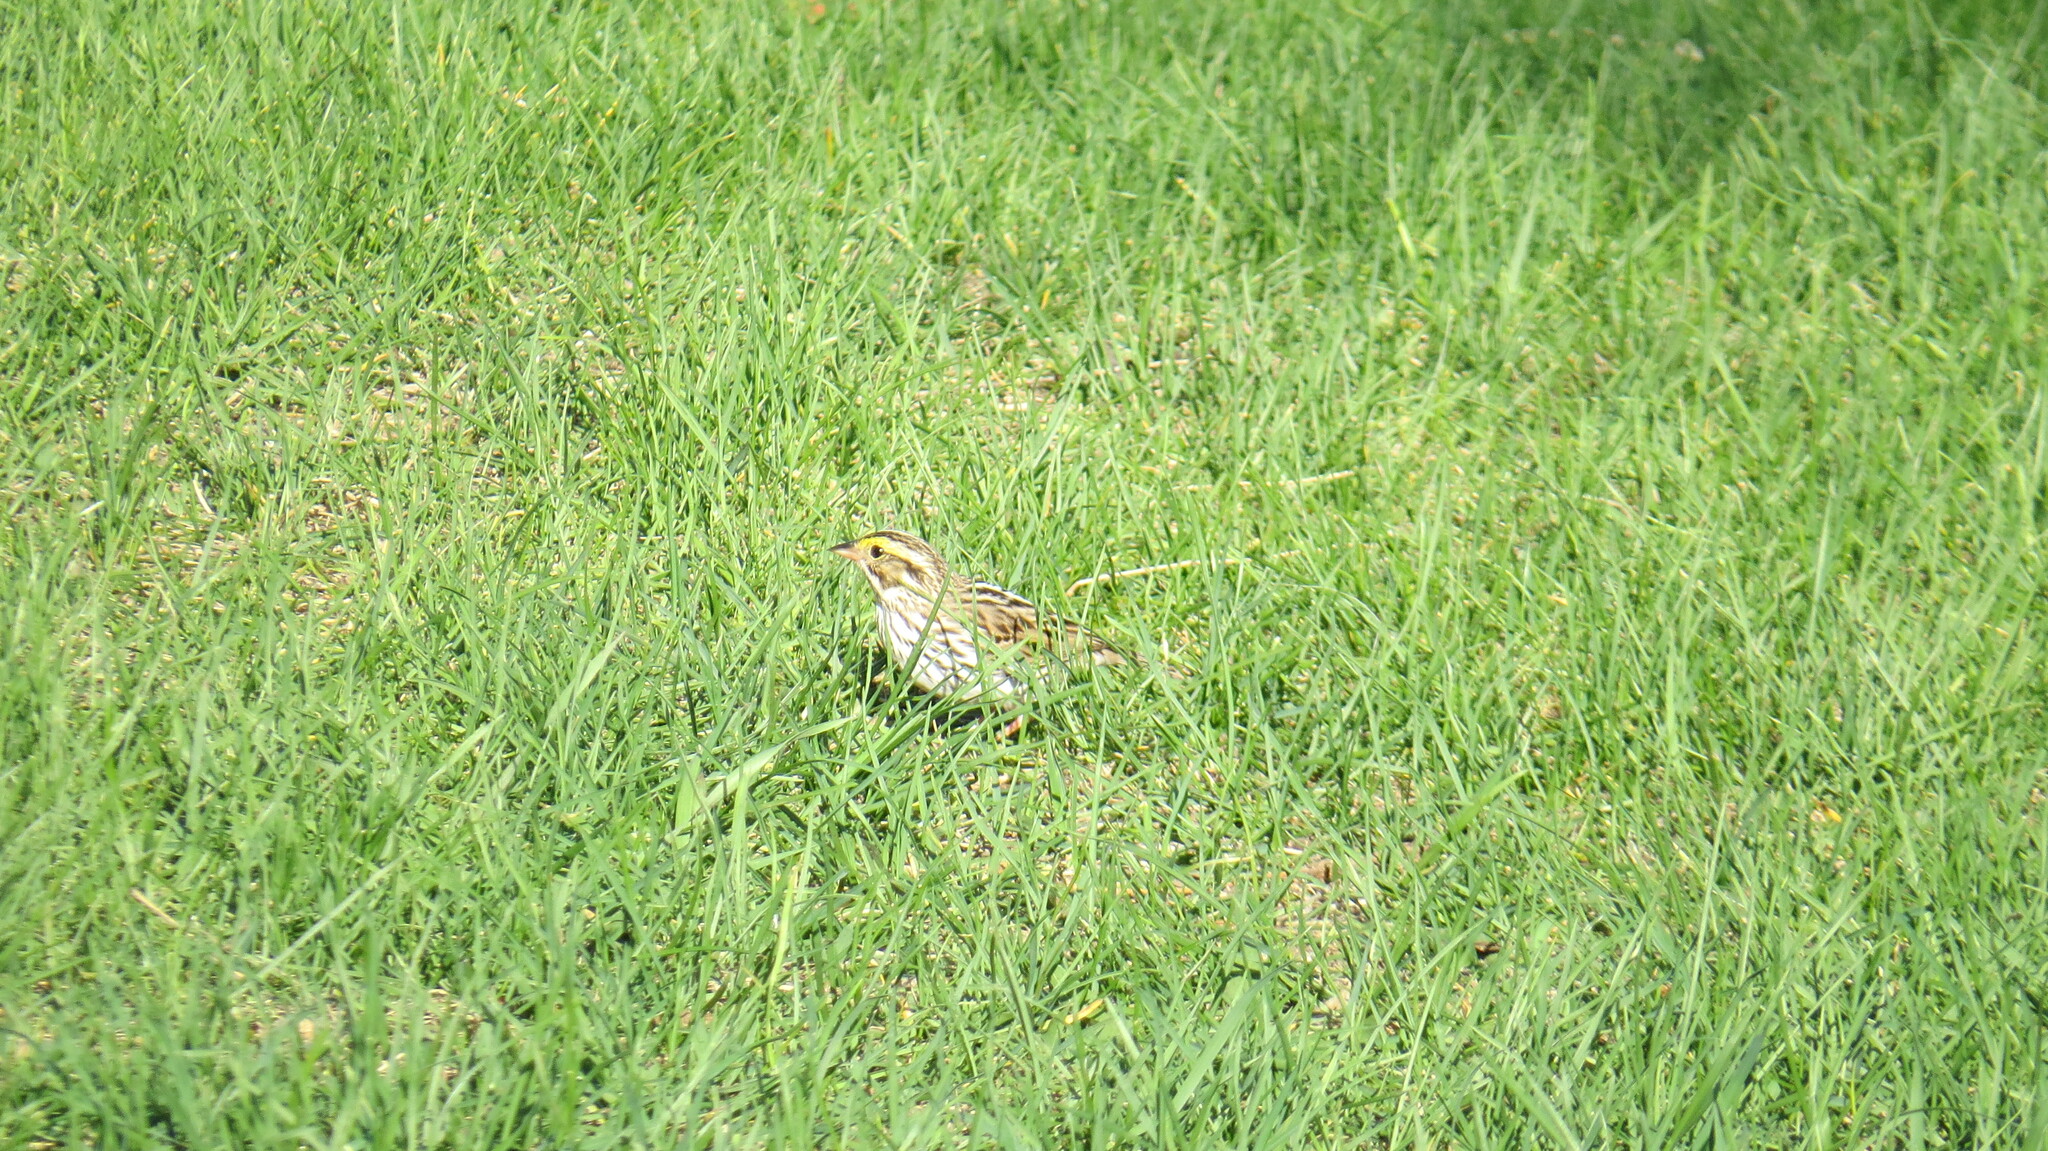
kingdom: Animalia
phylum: Chordata
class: Aves
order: Passeriformes
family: Passerellidae
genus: Passerculus
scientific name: Passerculus sandwichensis
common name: Savannah sparrow
